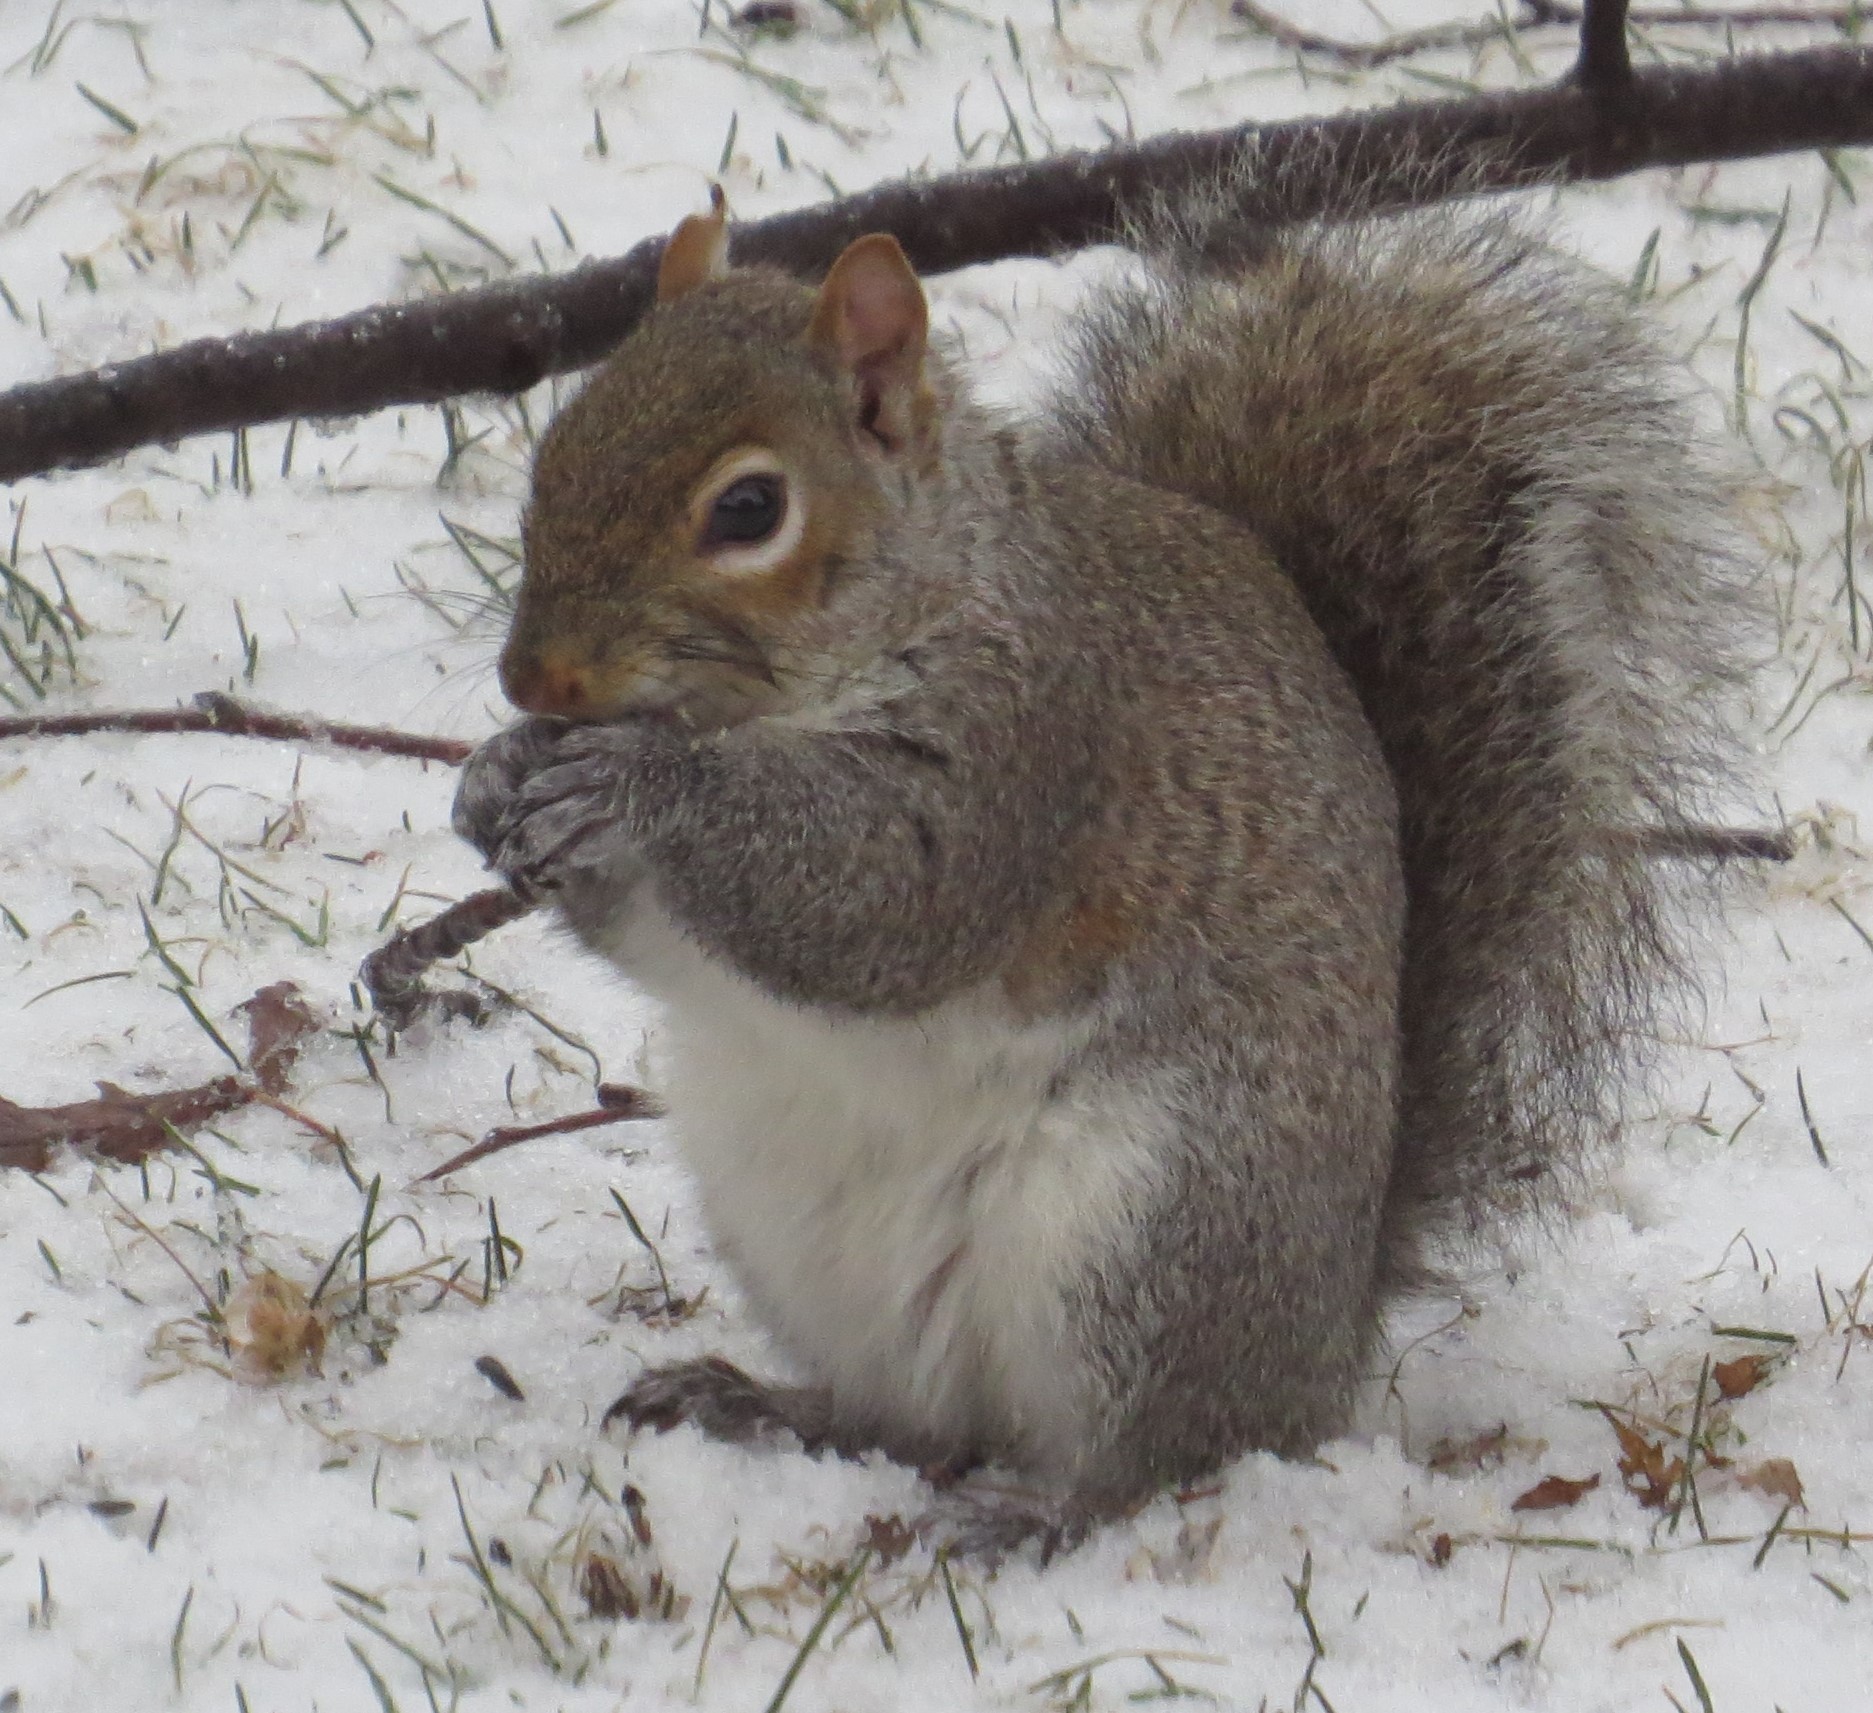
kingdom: Animalia
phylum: Chordata
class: Mammalia
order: Rodentia
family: Sciuridae
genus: Sciurus
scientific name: Sciurus carolinensis
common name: Eastern gray squirrel
